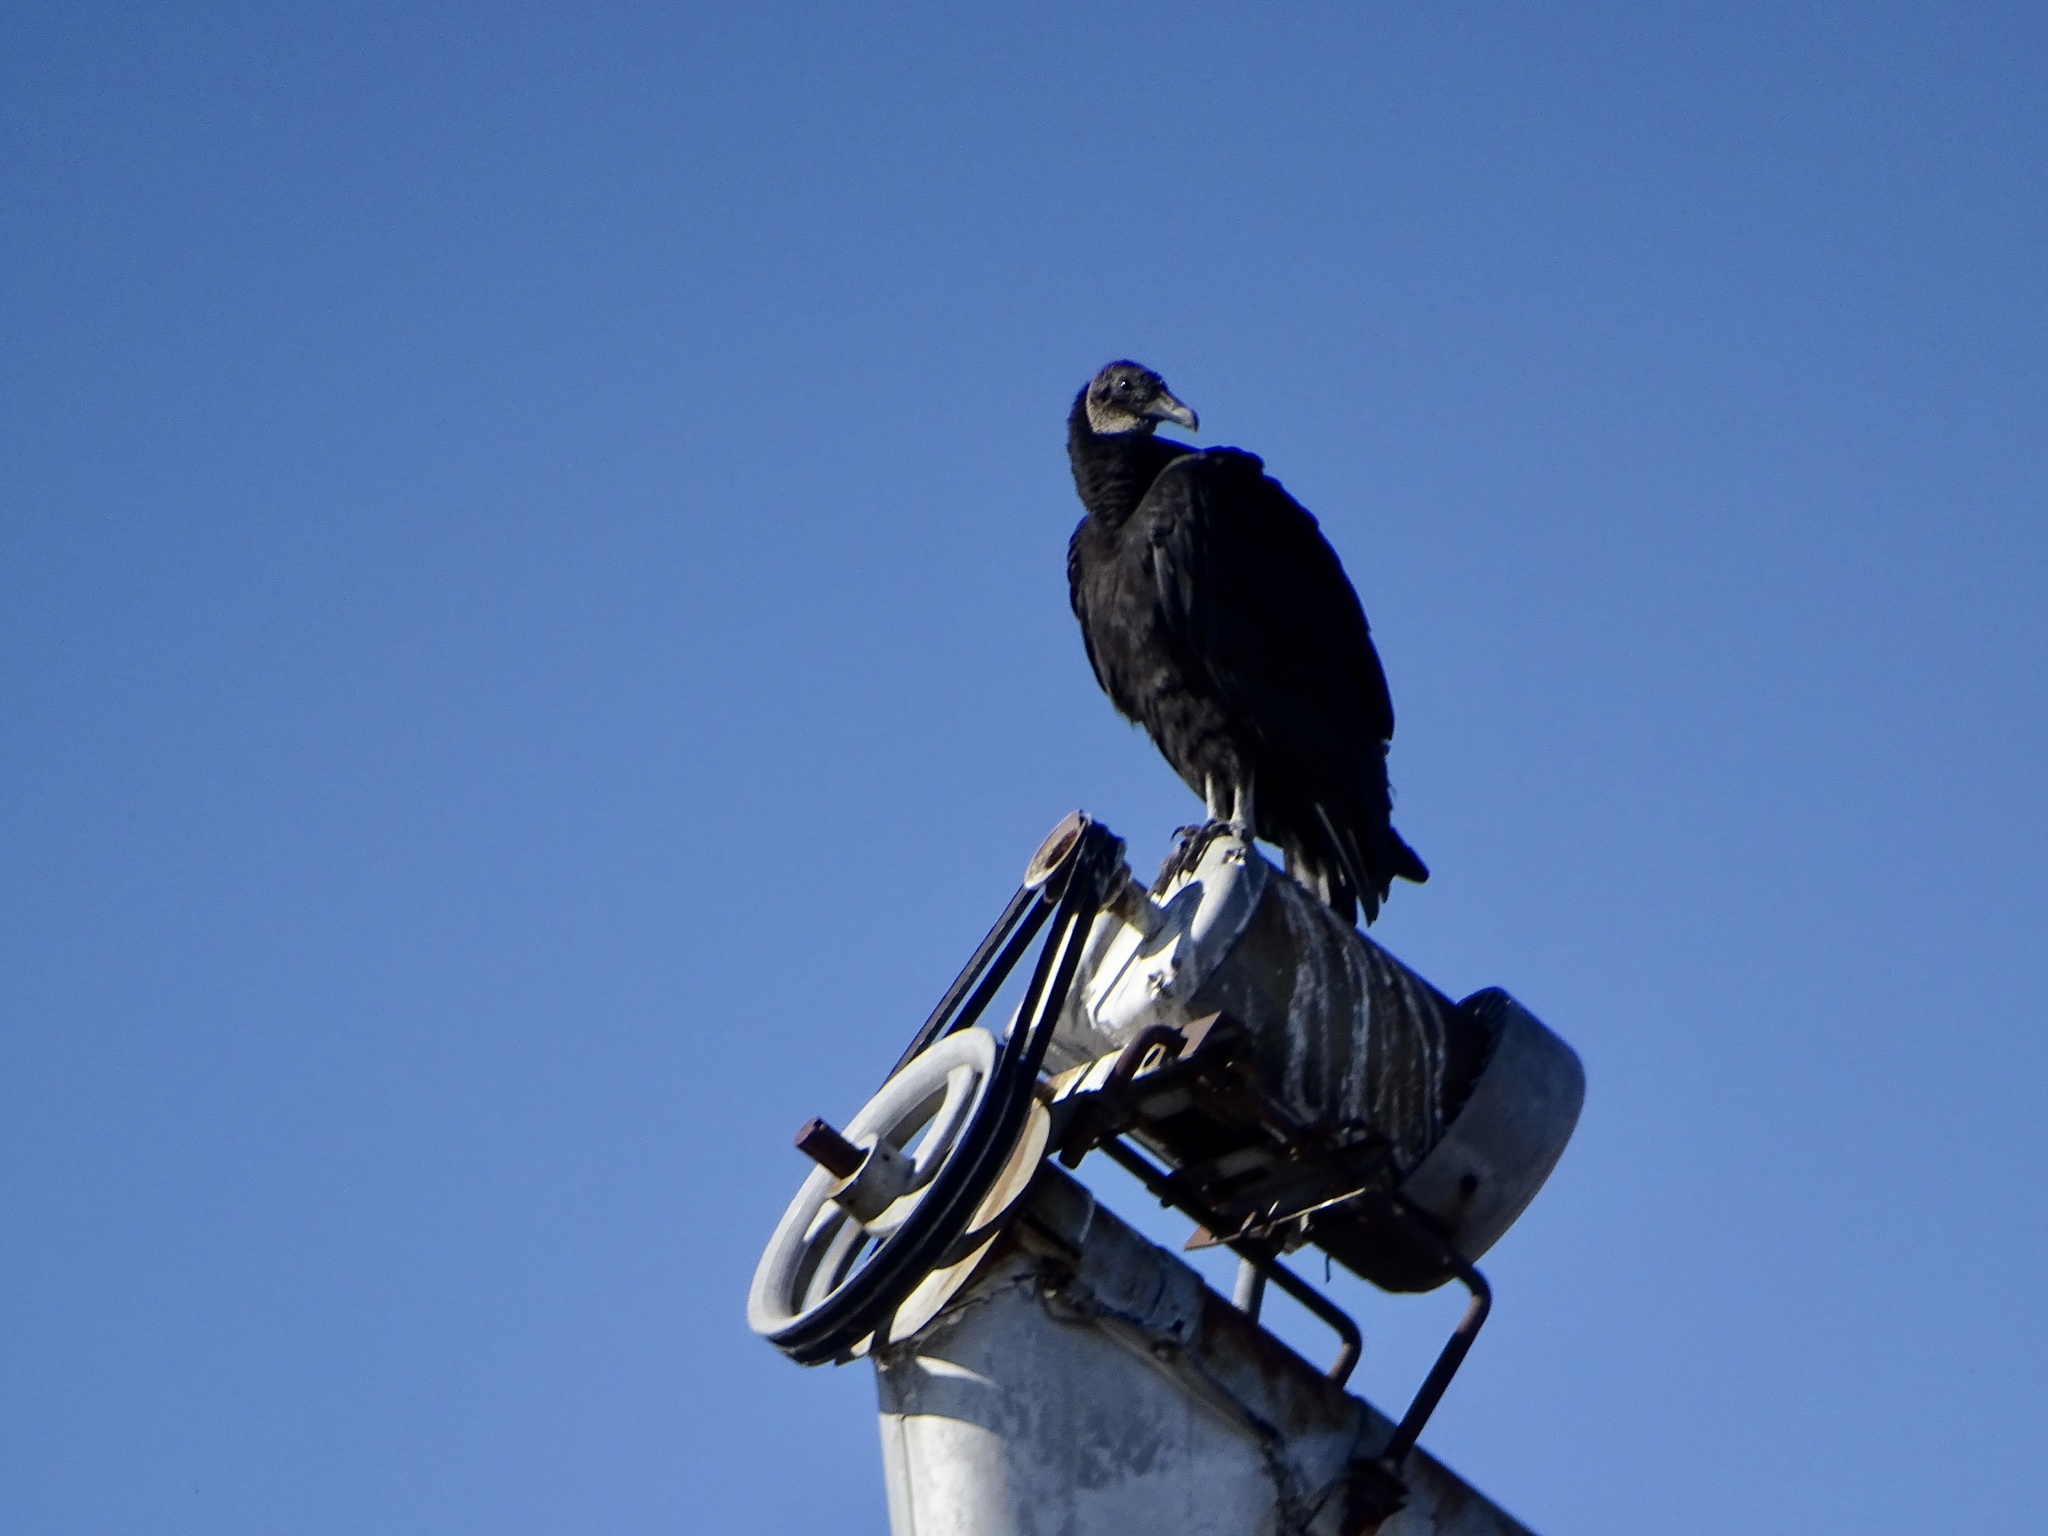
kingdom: Animalia
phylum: Chordata
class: Aves
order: Accipitriformes
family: Cathartidae
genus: Coragyps
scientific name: Coragyps atratus
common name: Black vulture
